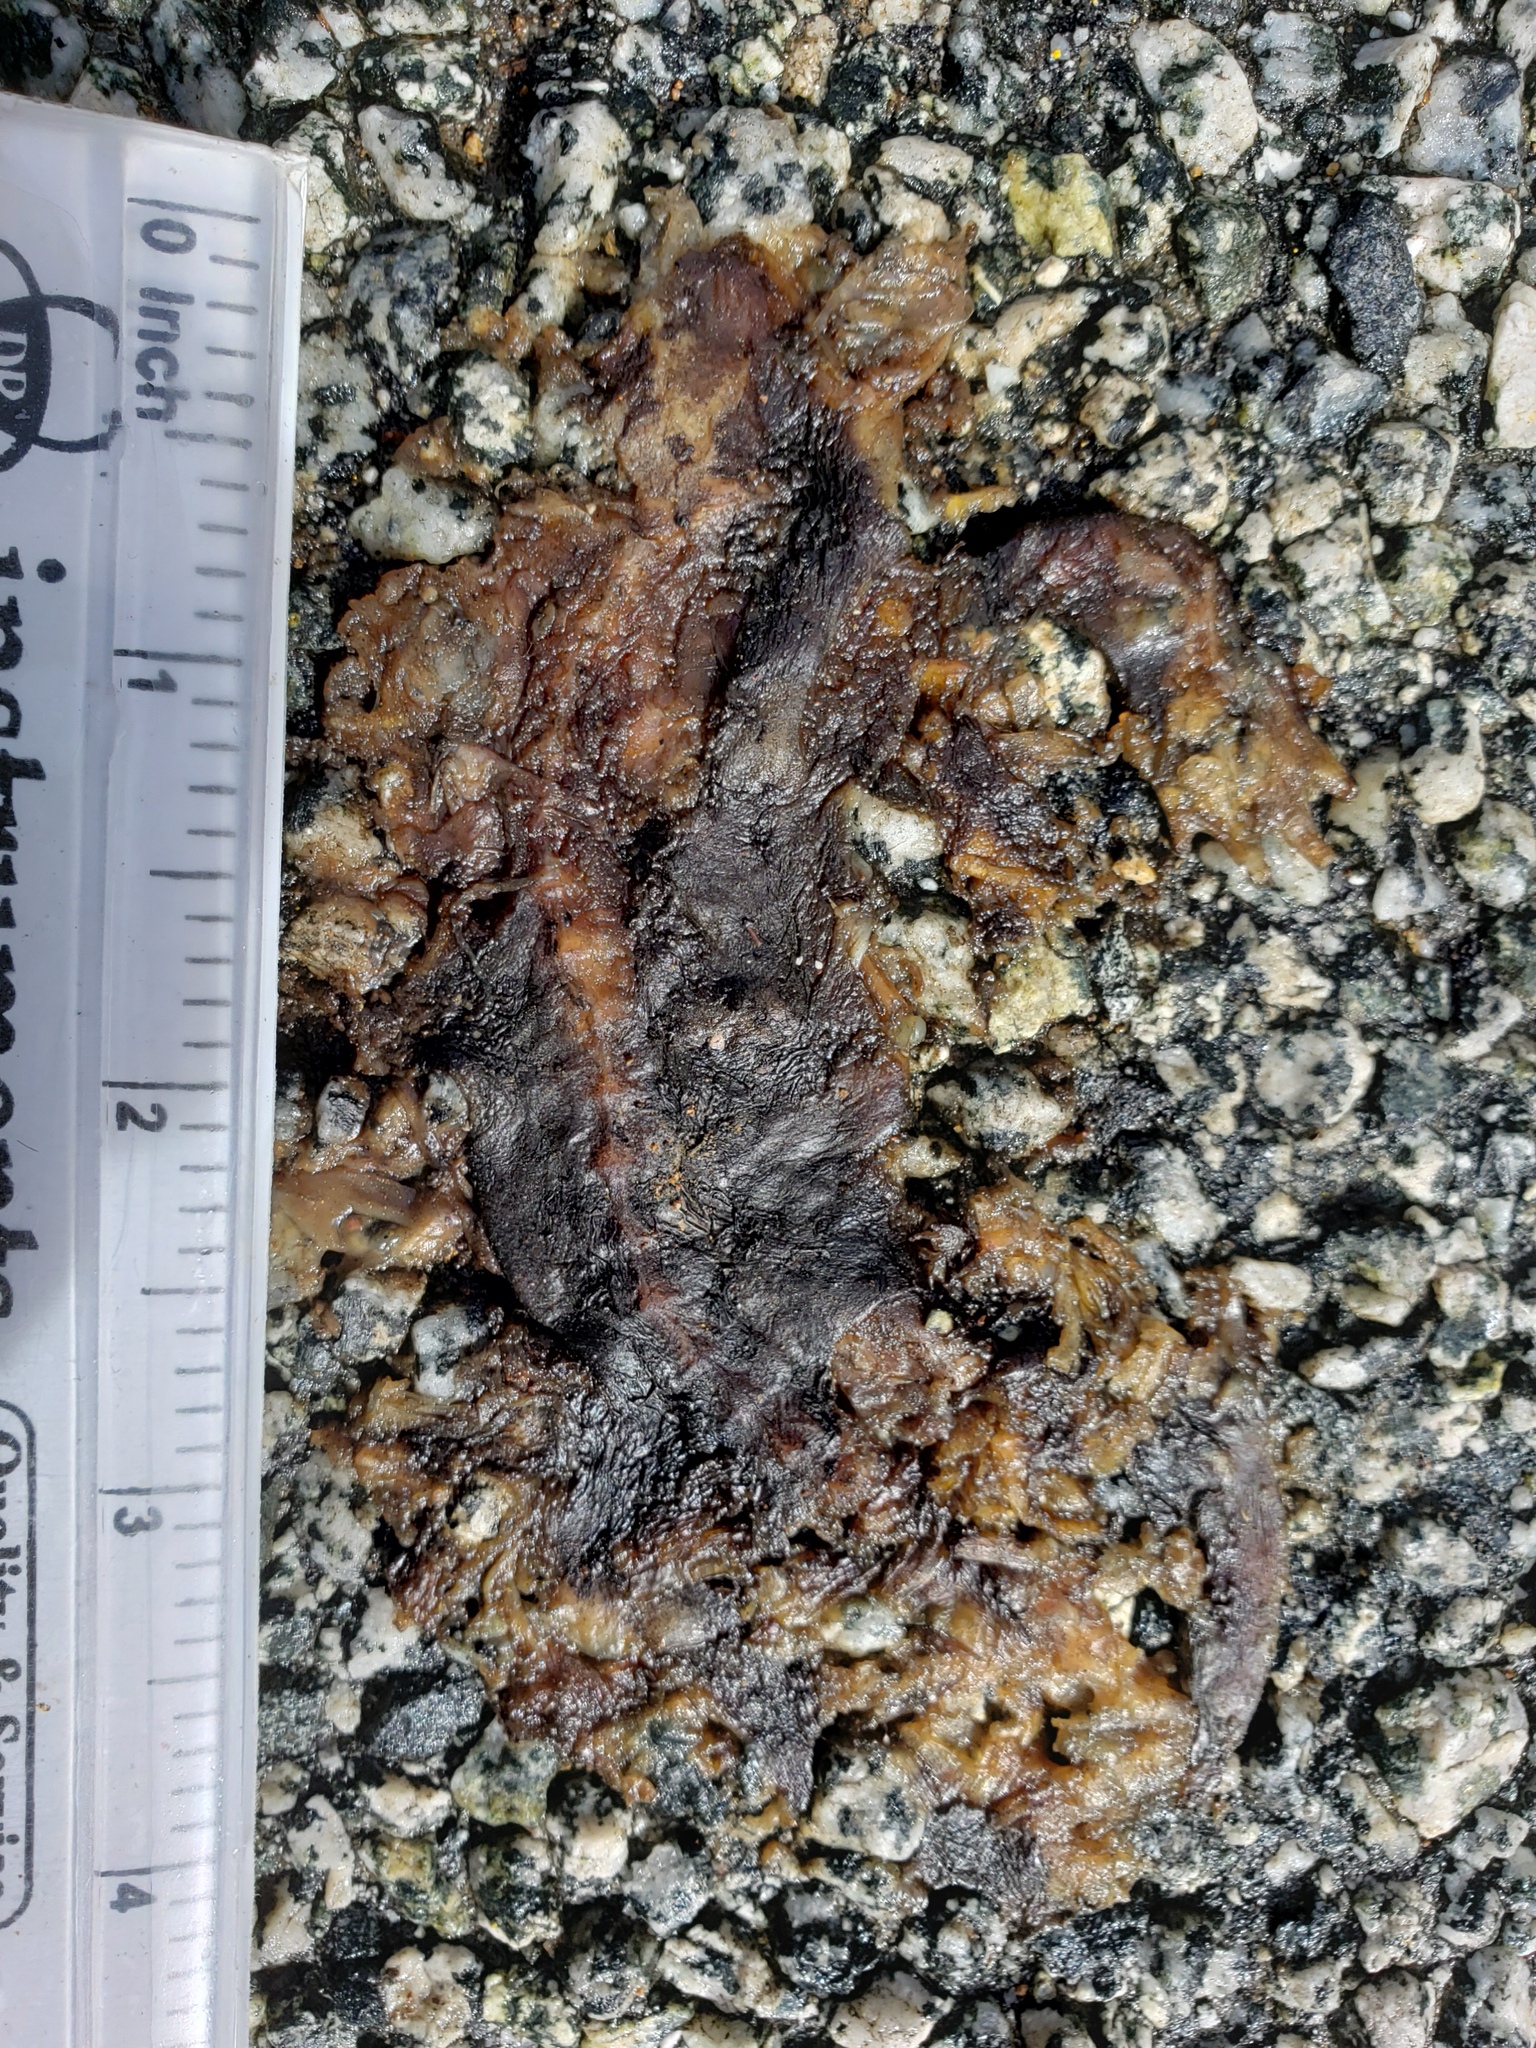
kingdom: Animalia
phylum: Chordata
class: Amphibia
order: Caudata
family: Salamandridae
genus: Taricha
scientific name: Taricha
